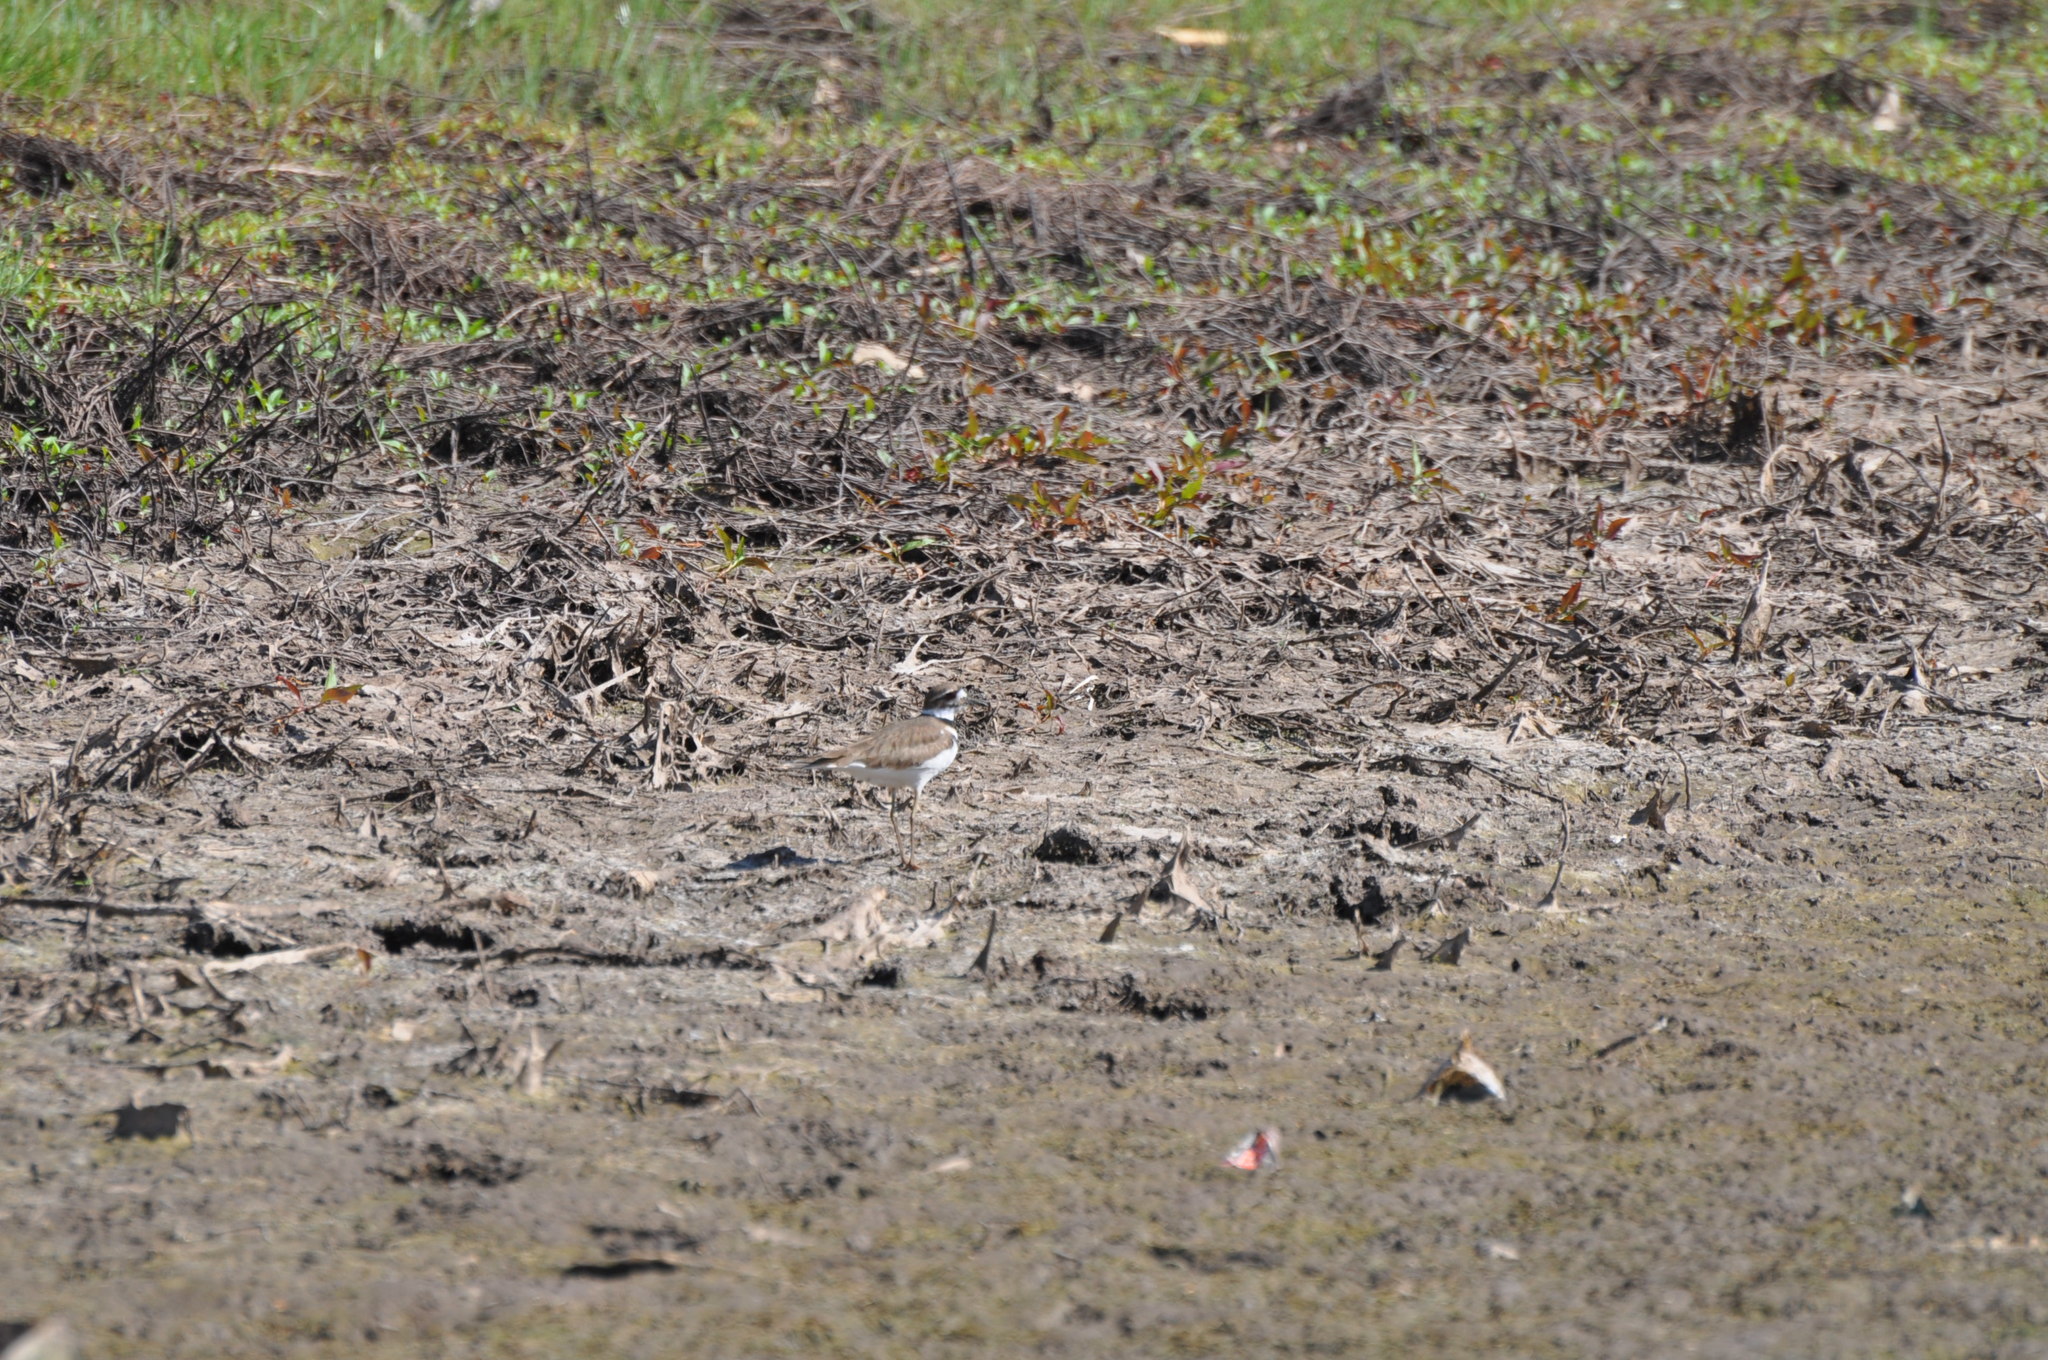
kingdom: Animalia
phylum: Chordata
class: Aves
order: Charadriiformes
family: Charadriidae
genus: Charadrius
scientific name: Charadrius vociferus
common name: Killdeer
